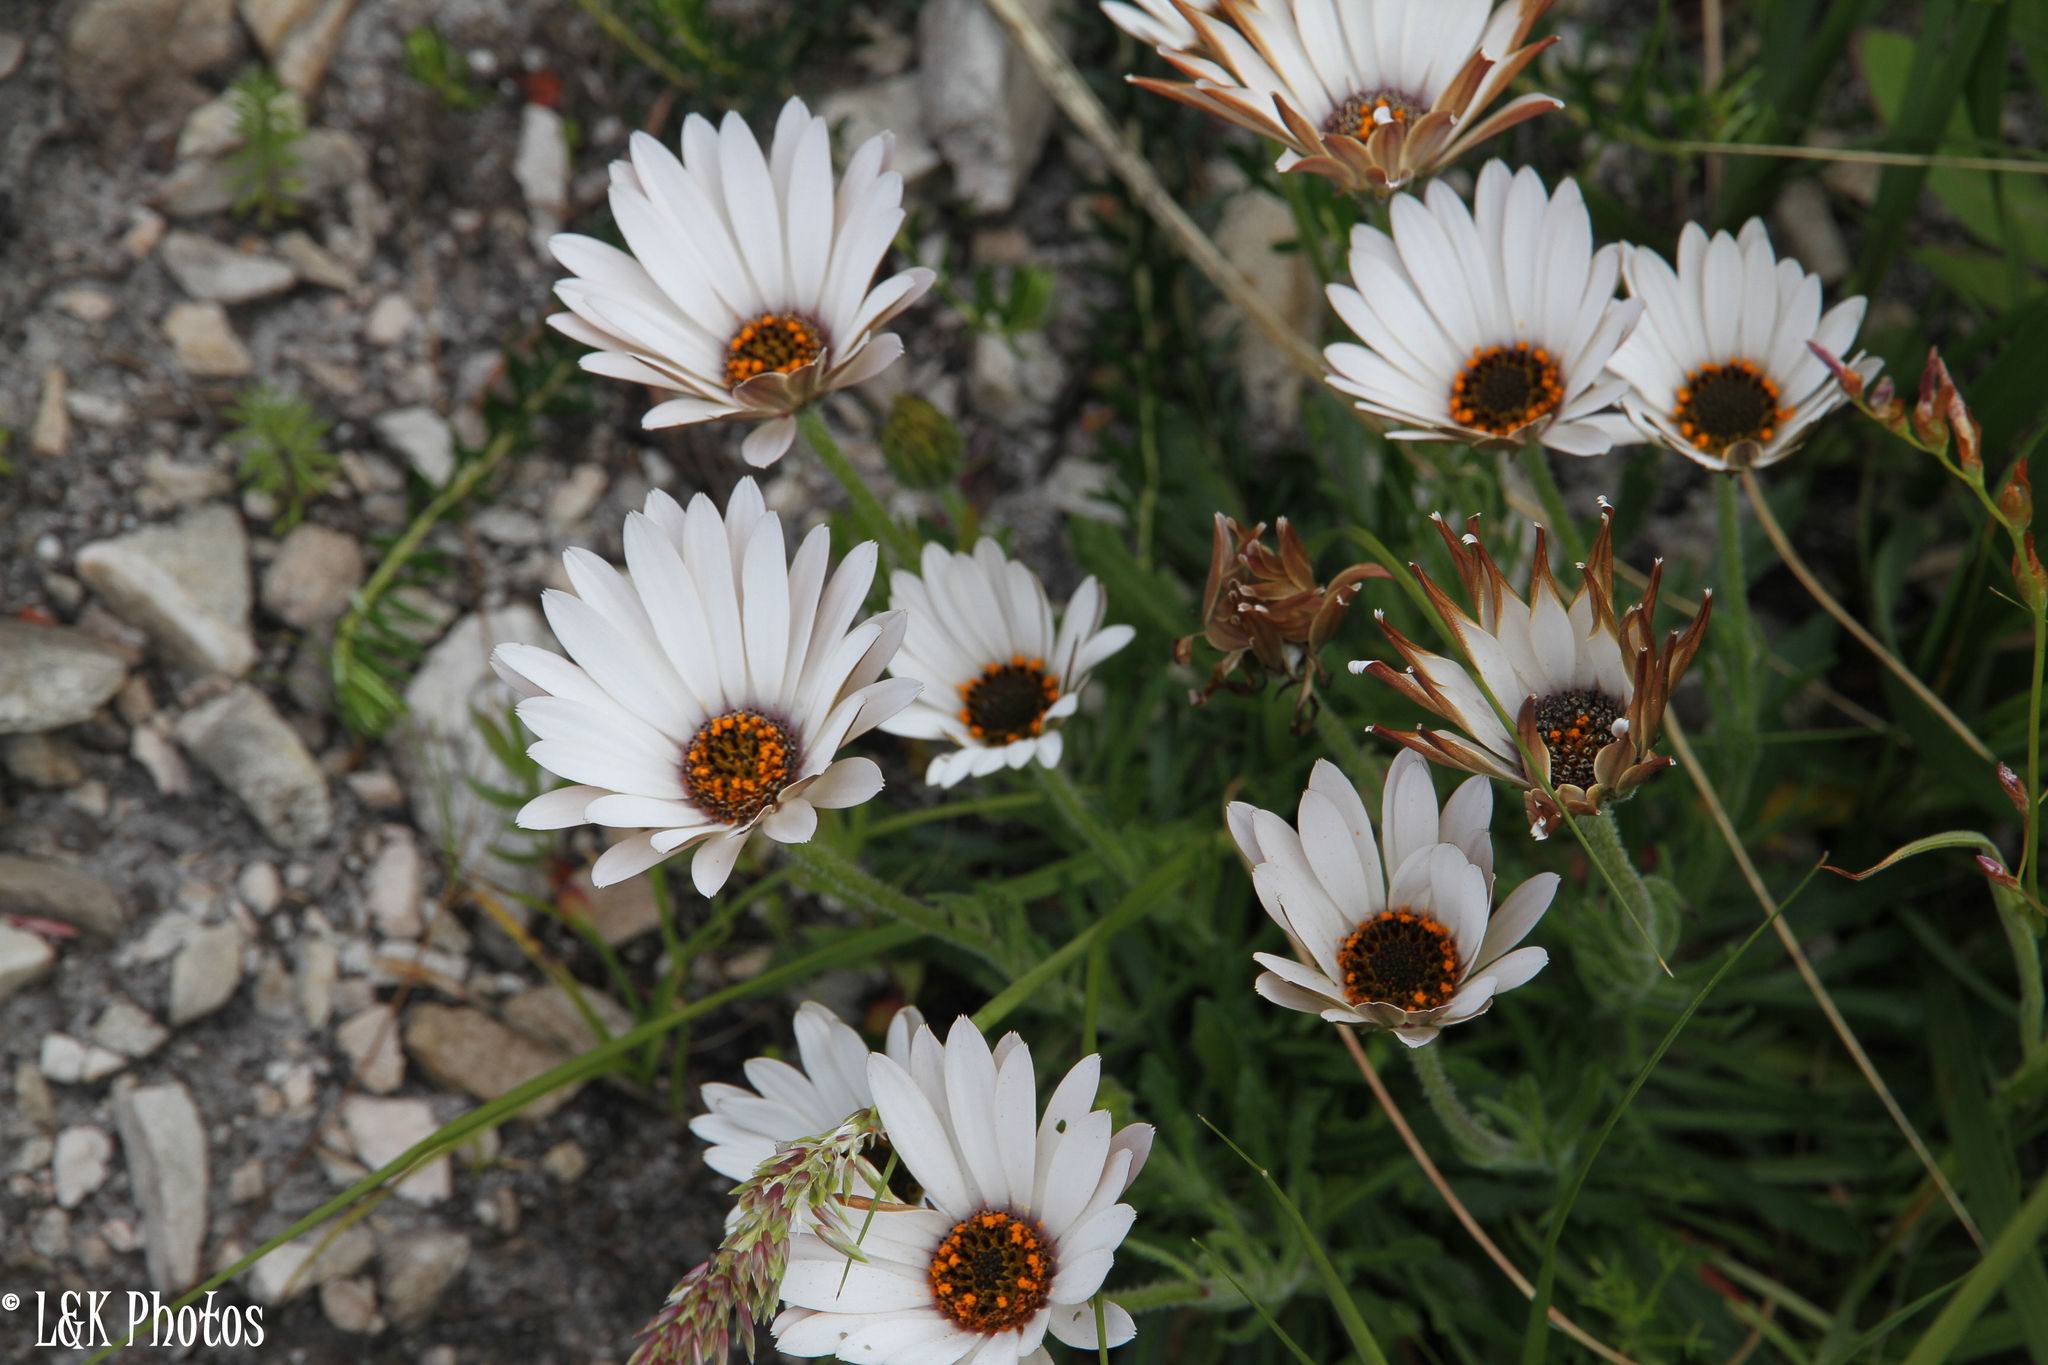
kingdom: Plantae
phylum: Tracheophyta
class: Magnoliopsida
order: Asterales
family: Asteraceae
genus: Dimorphotheca
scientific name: Dimorphotheca nudicaulis
